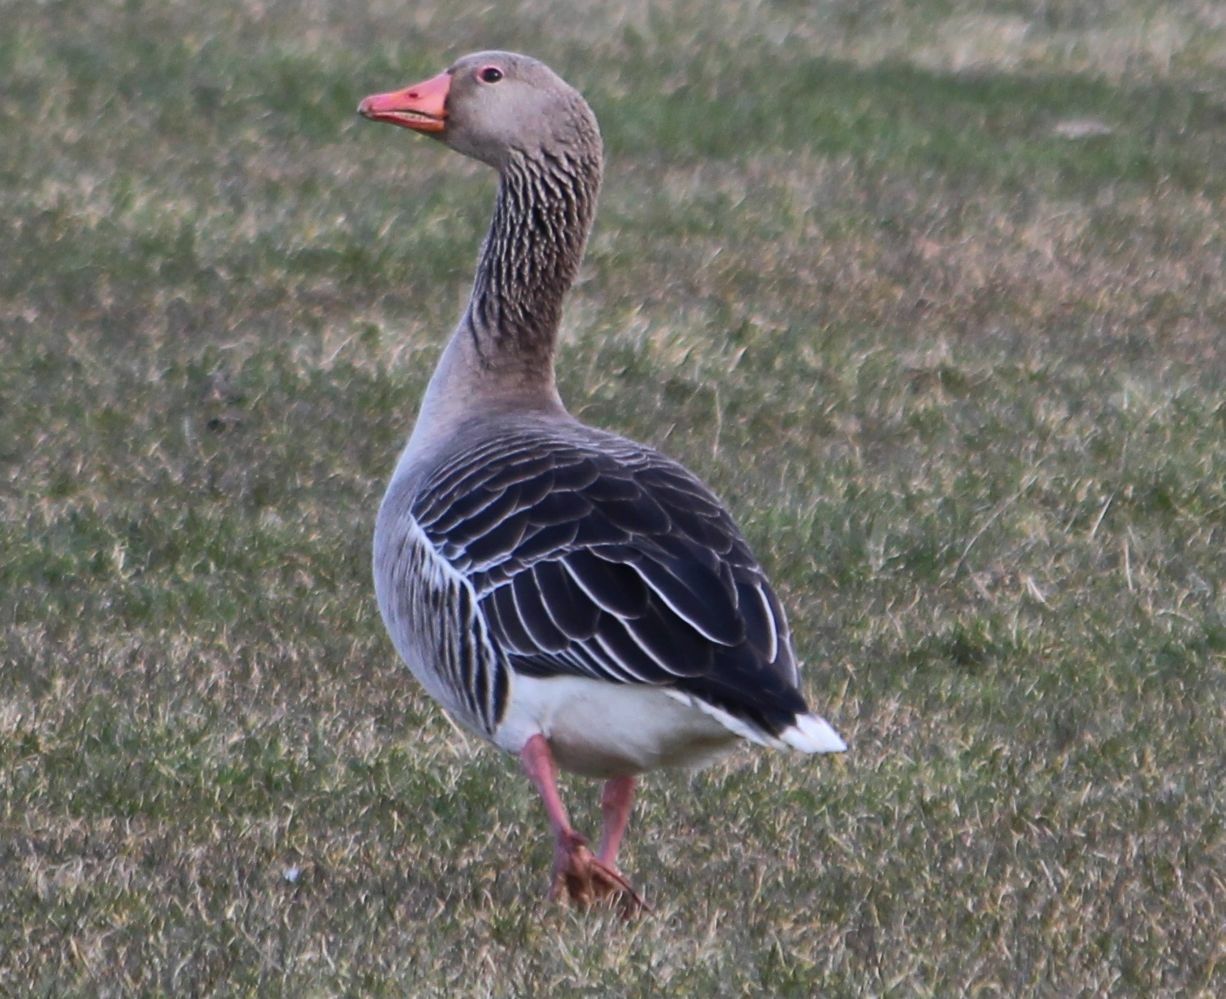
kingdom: Animalia
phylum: Chordata
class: Aves
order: Anseriformes
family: Anatidae
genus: Anser
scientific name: Anser anser
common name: Greylag goose
